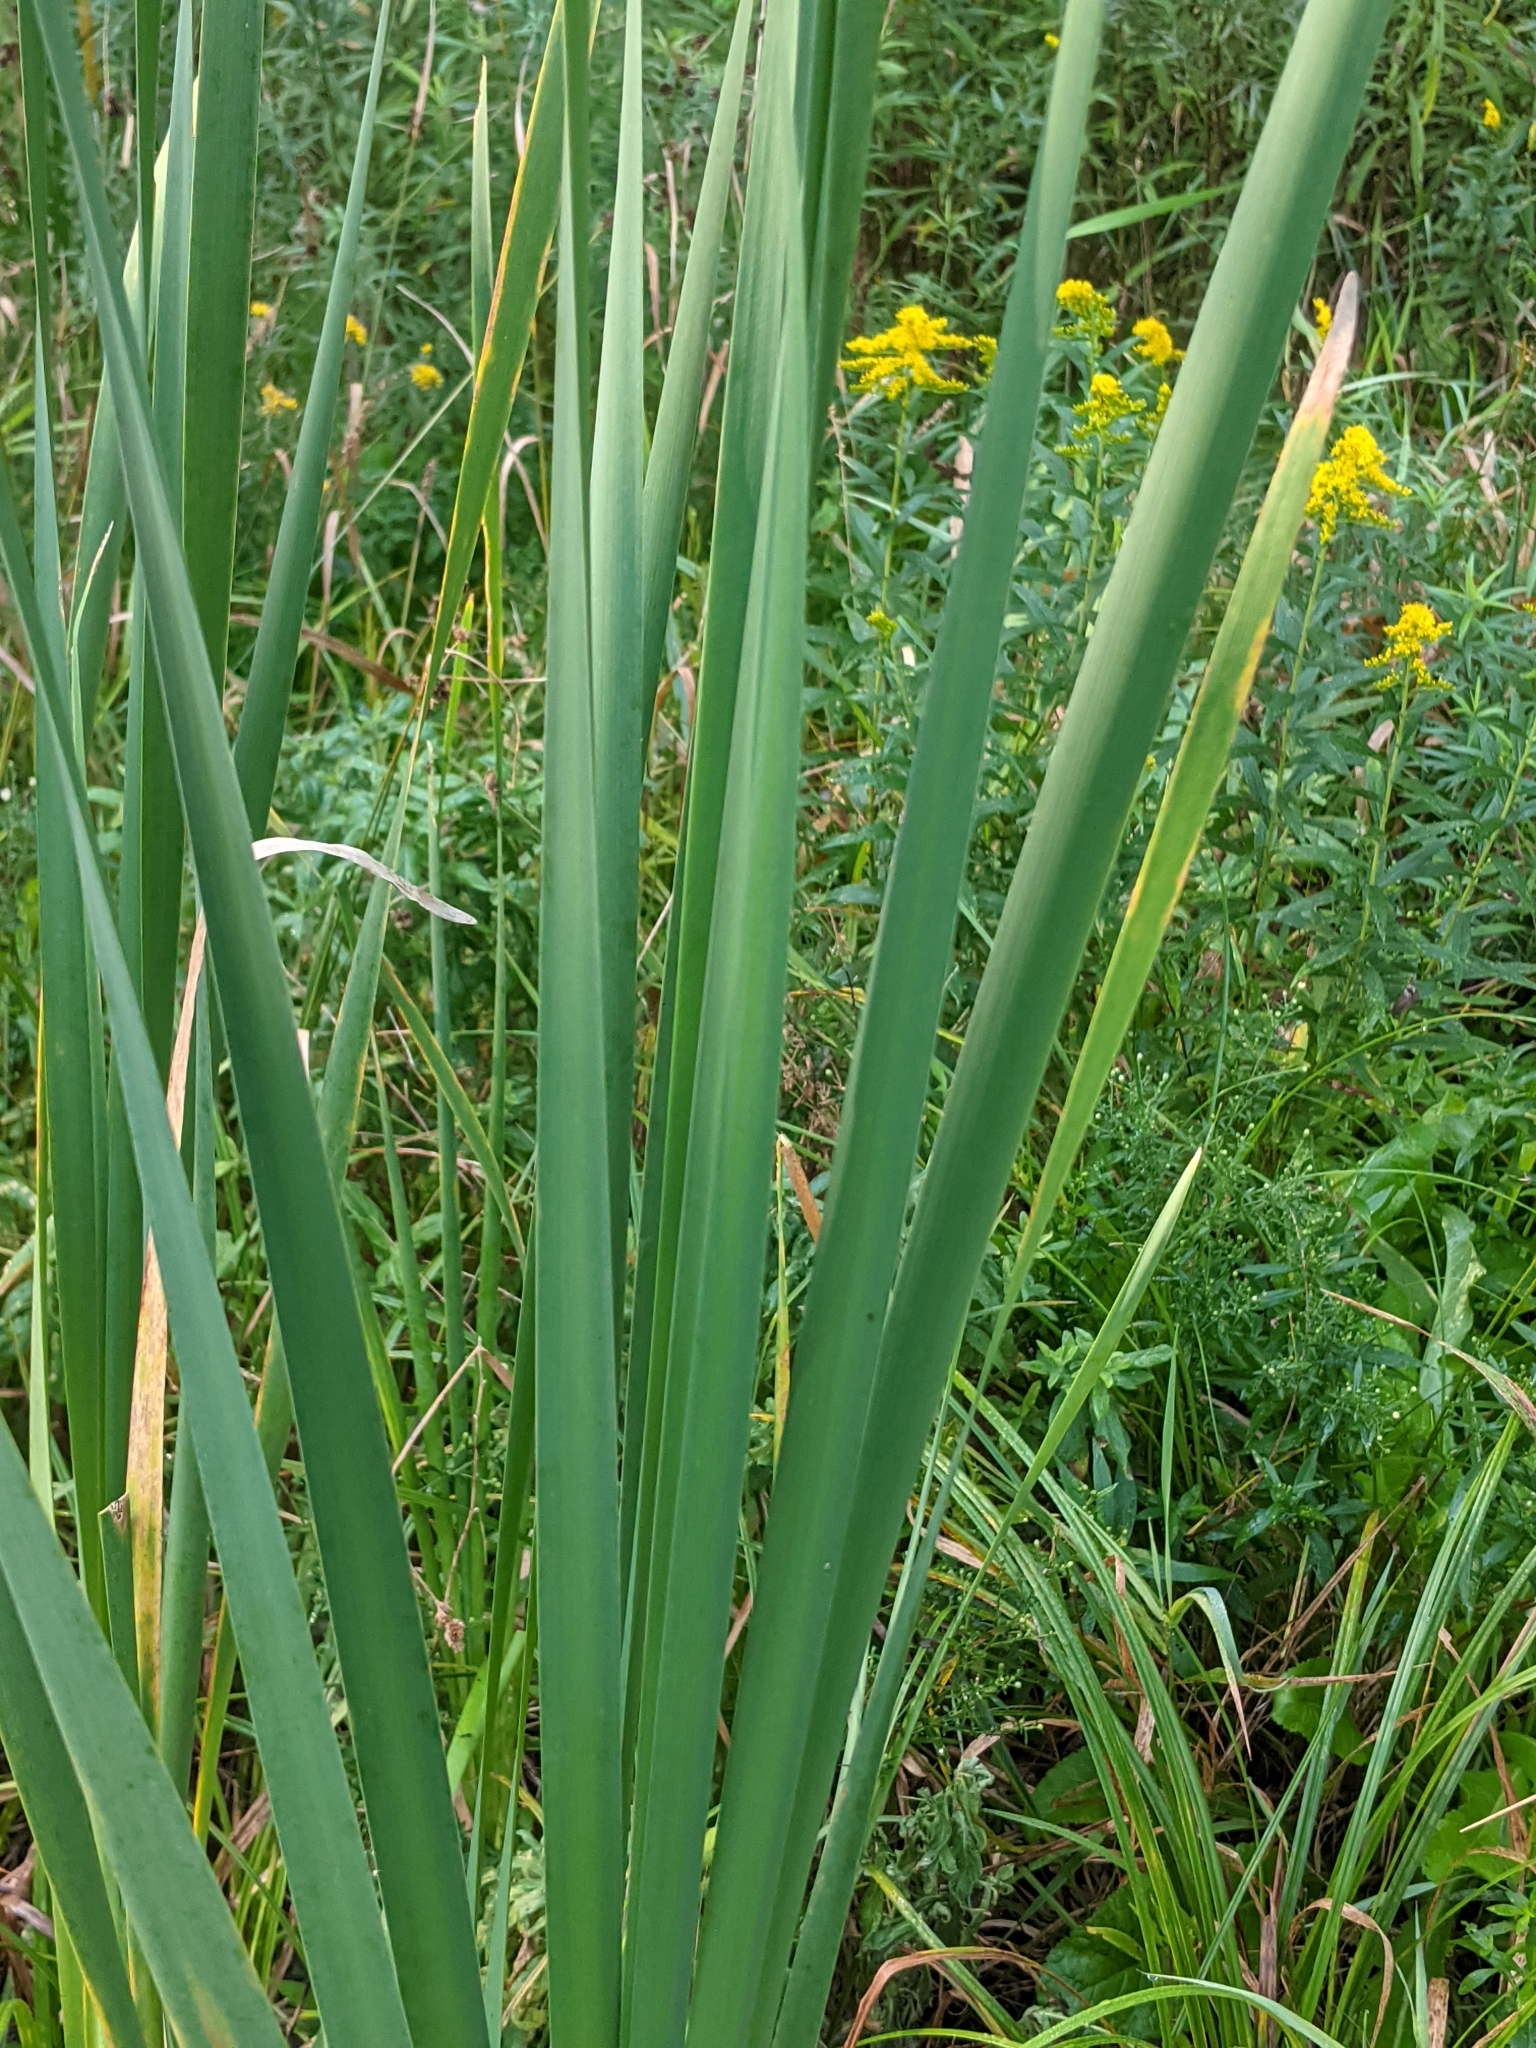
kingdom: Plantae
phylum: Tracheophyta
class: Liliopsida
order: Poales
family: Typhaceae
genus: Typha
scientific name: Typha latifolia
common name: Broadleaf cattail
